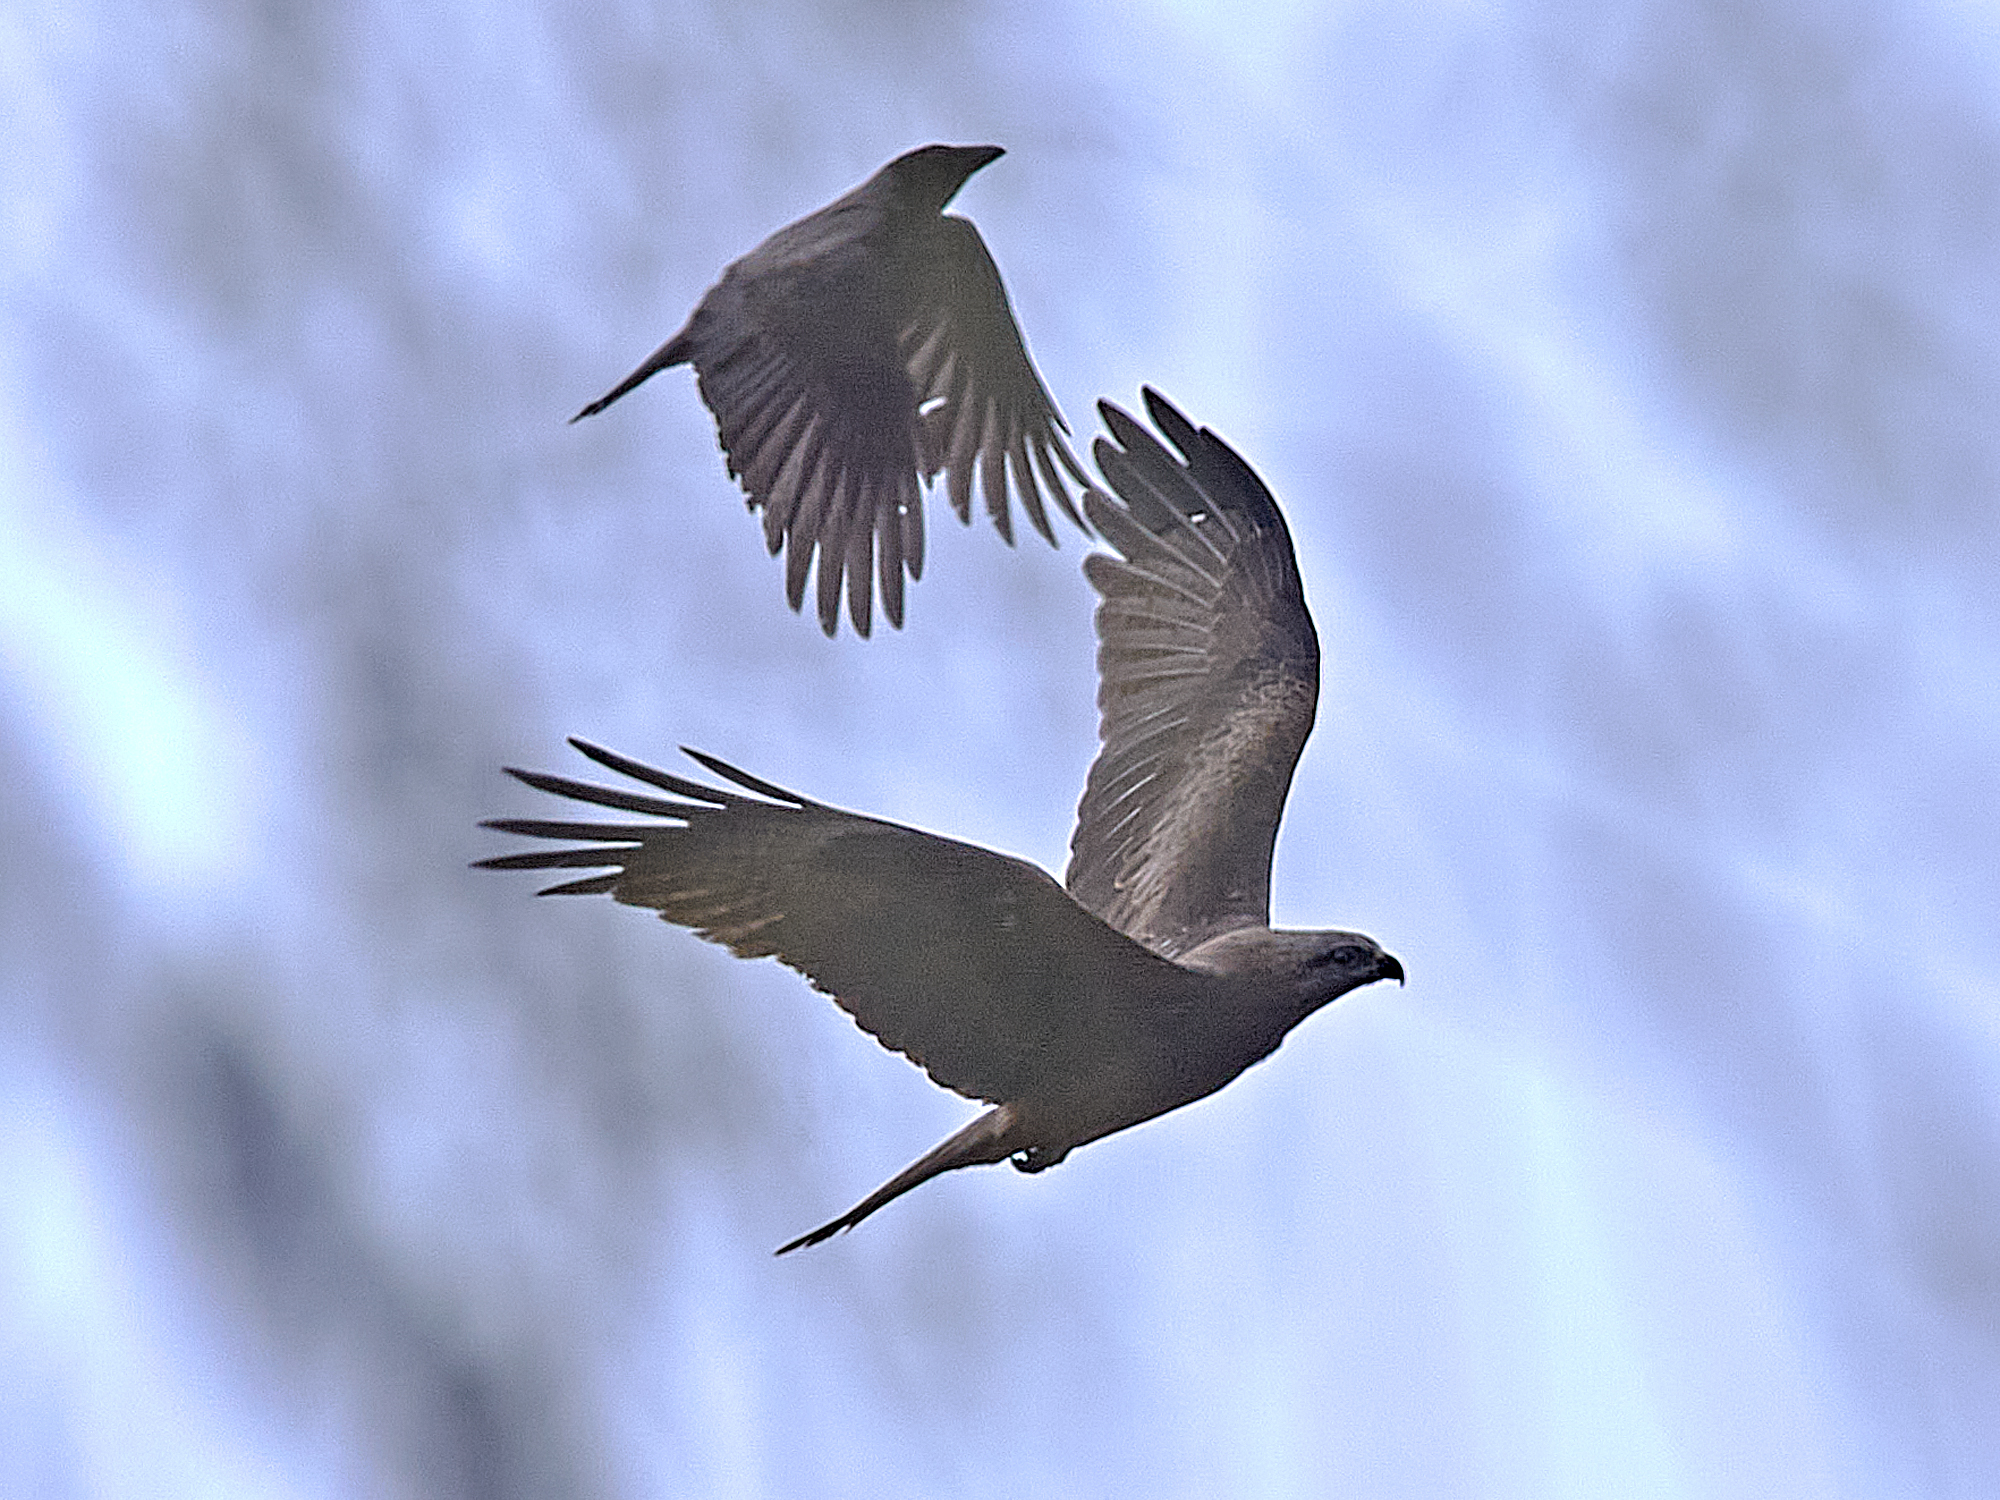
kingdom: Animalia
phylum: Chordata
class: Aves
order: Accipitriformes
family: Accipitridae
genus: Milvus
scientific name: Milvus migrans
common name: Black kite
